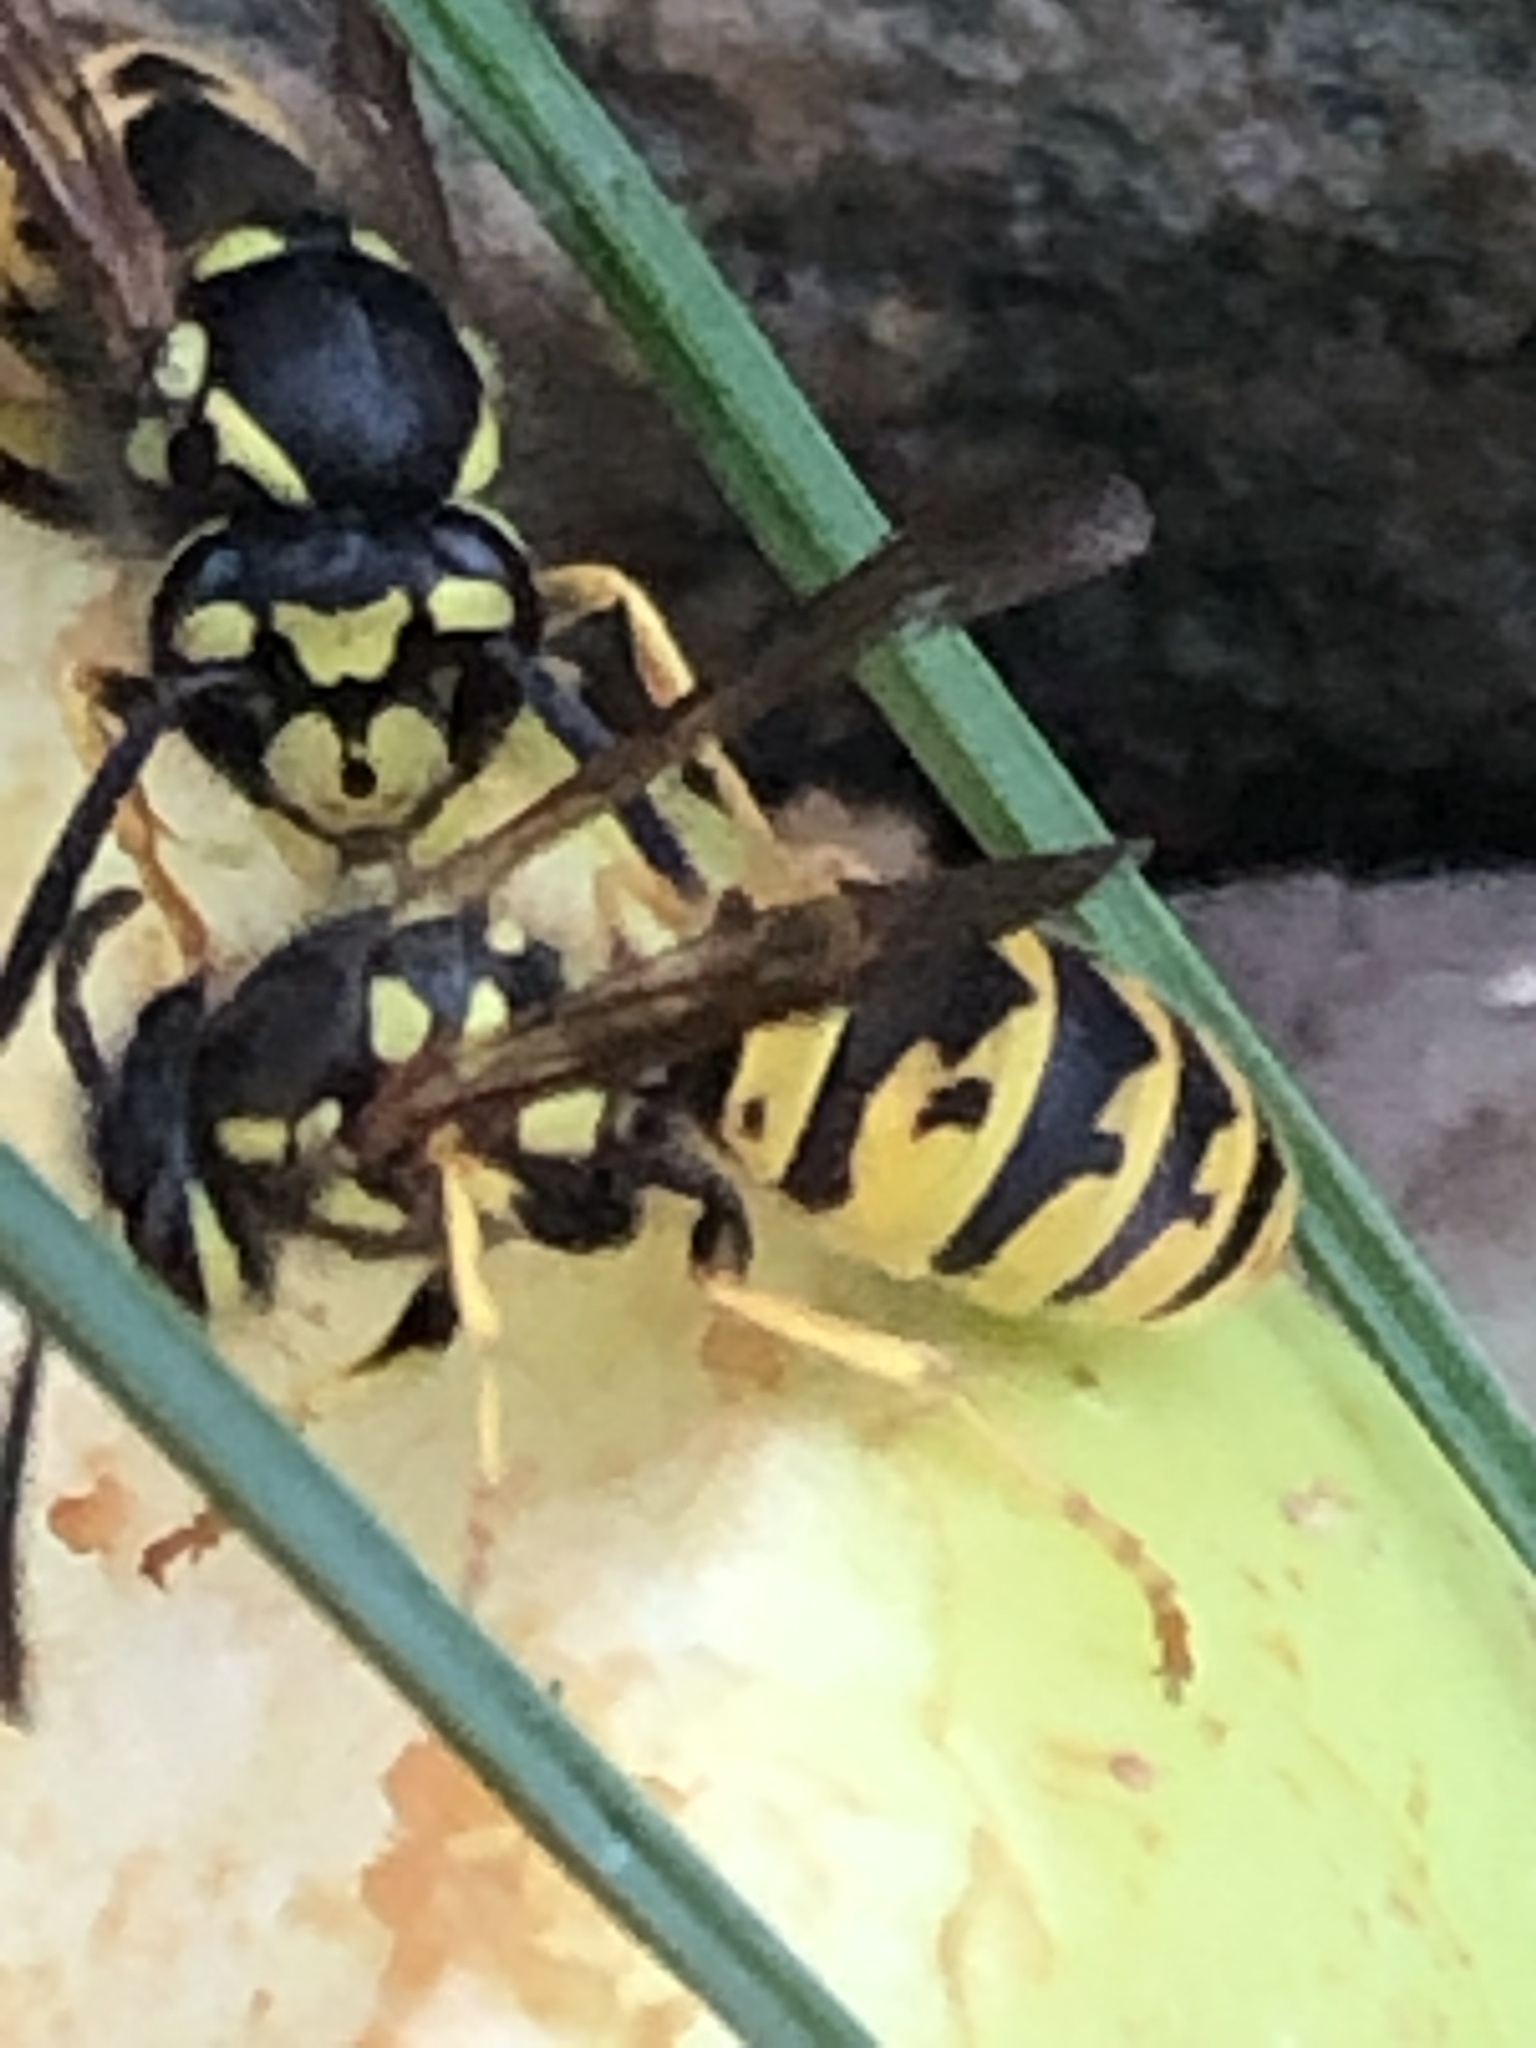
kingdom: Animalia
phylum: Arthropoda
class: Insecta
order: Hymenoptera
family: Vespidae
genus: Vespula
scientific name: Vespula germanica
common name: German wasp
